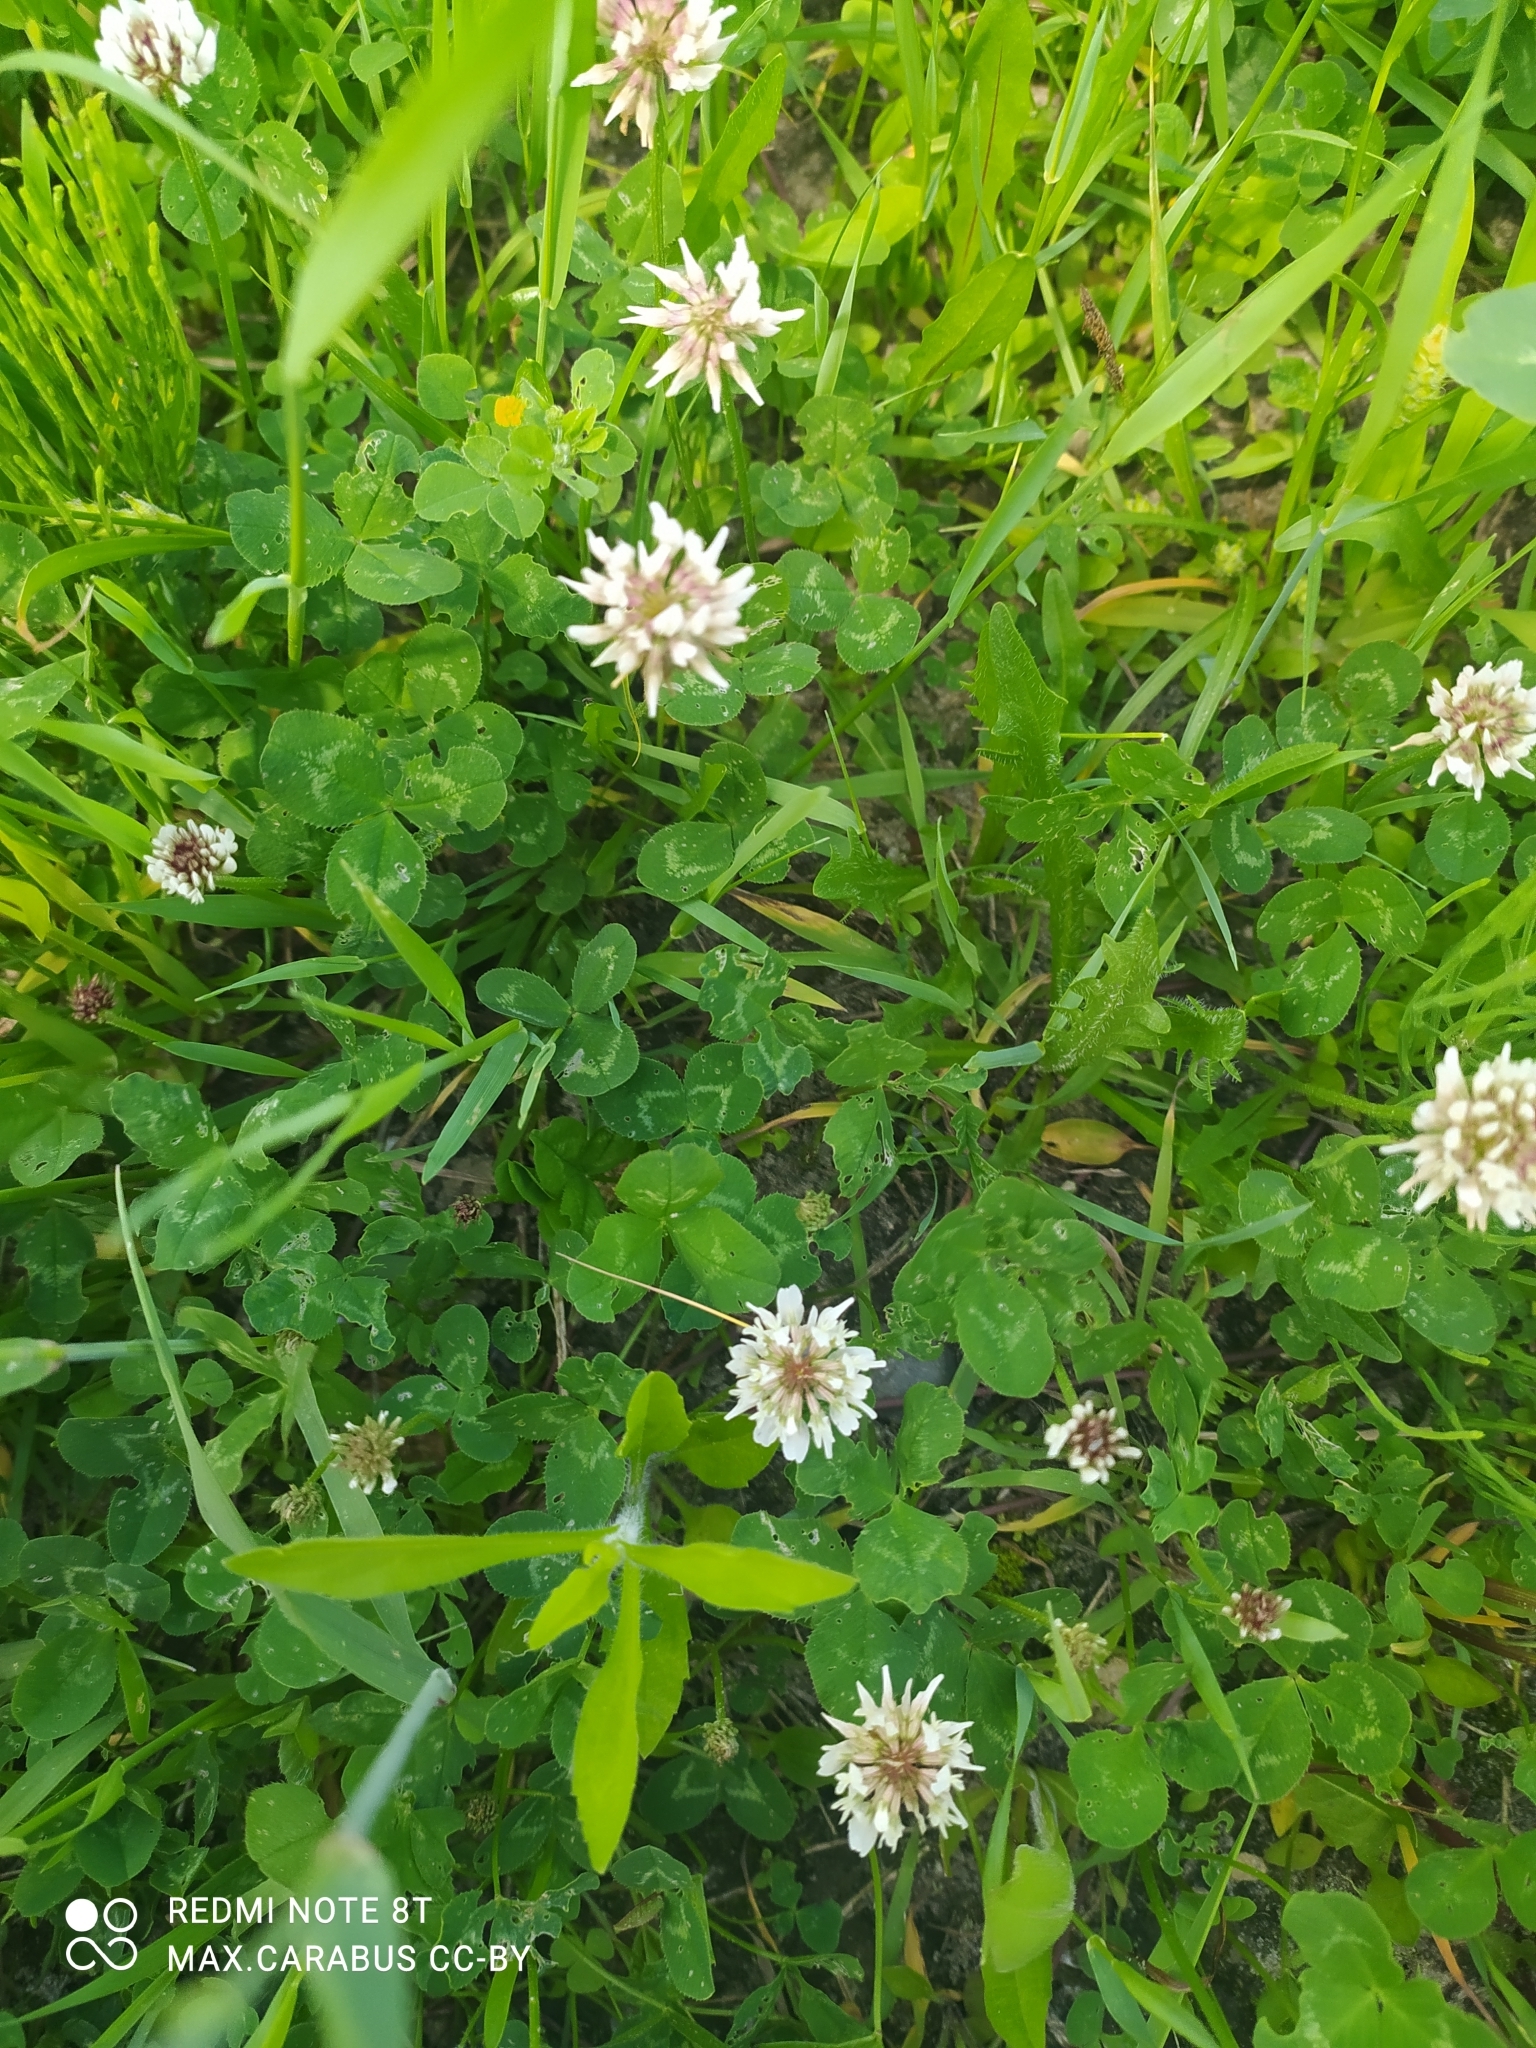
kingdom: Plantae
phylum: Tracheophyta
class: Magnoliopsida
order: Fabales
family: Fabaceae
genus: Trifolium
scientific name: Trifolium repens
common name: White clover
